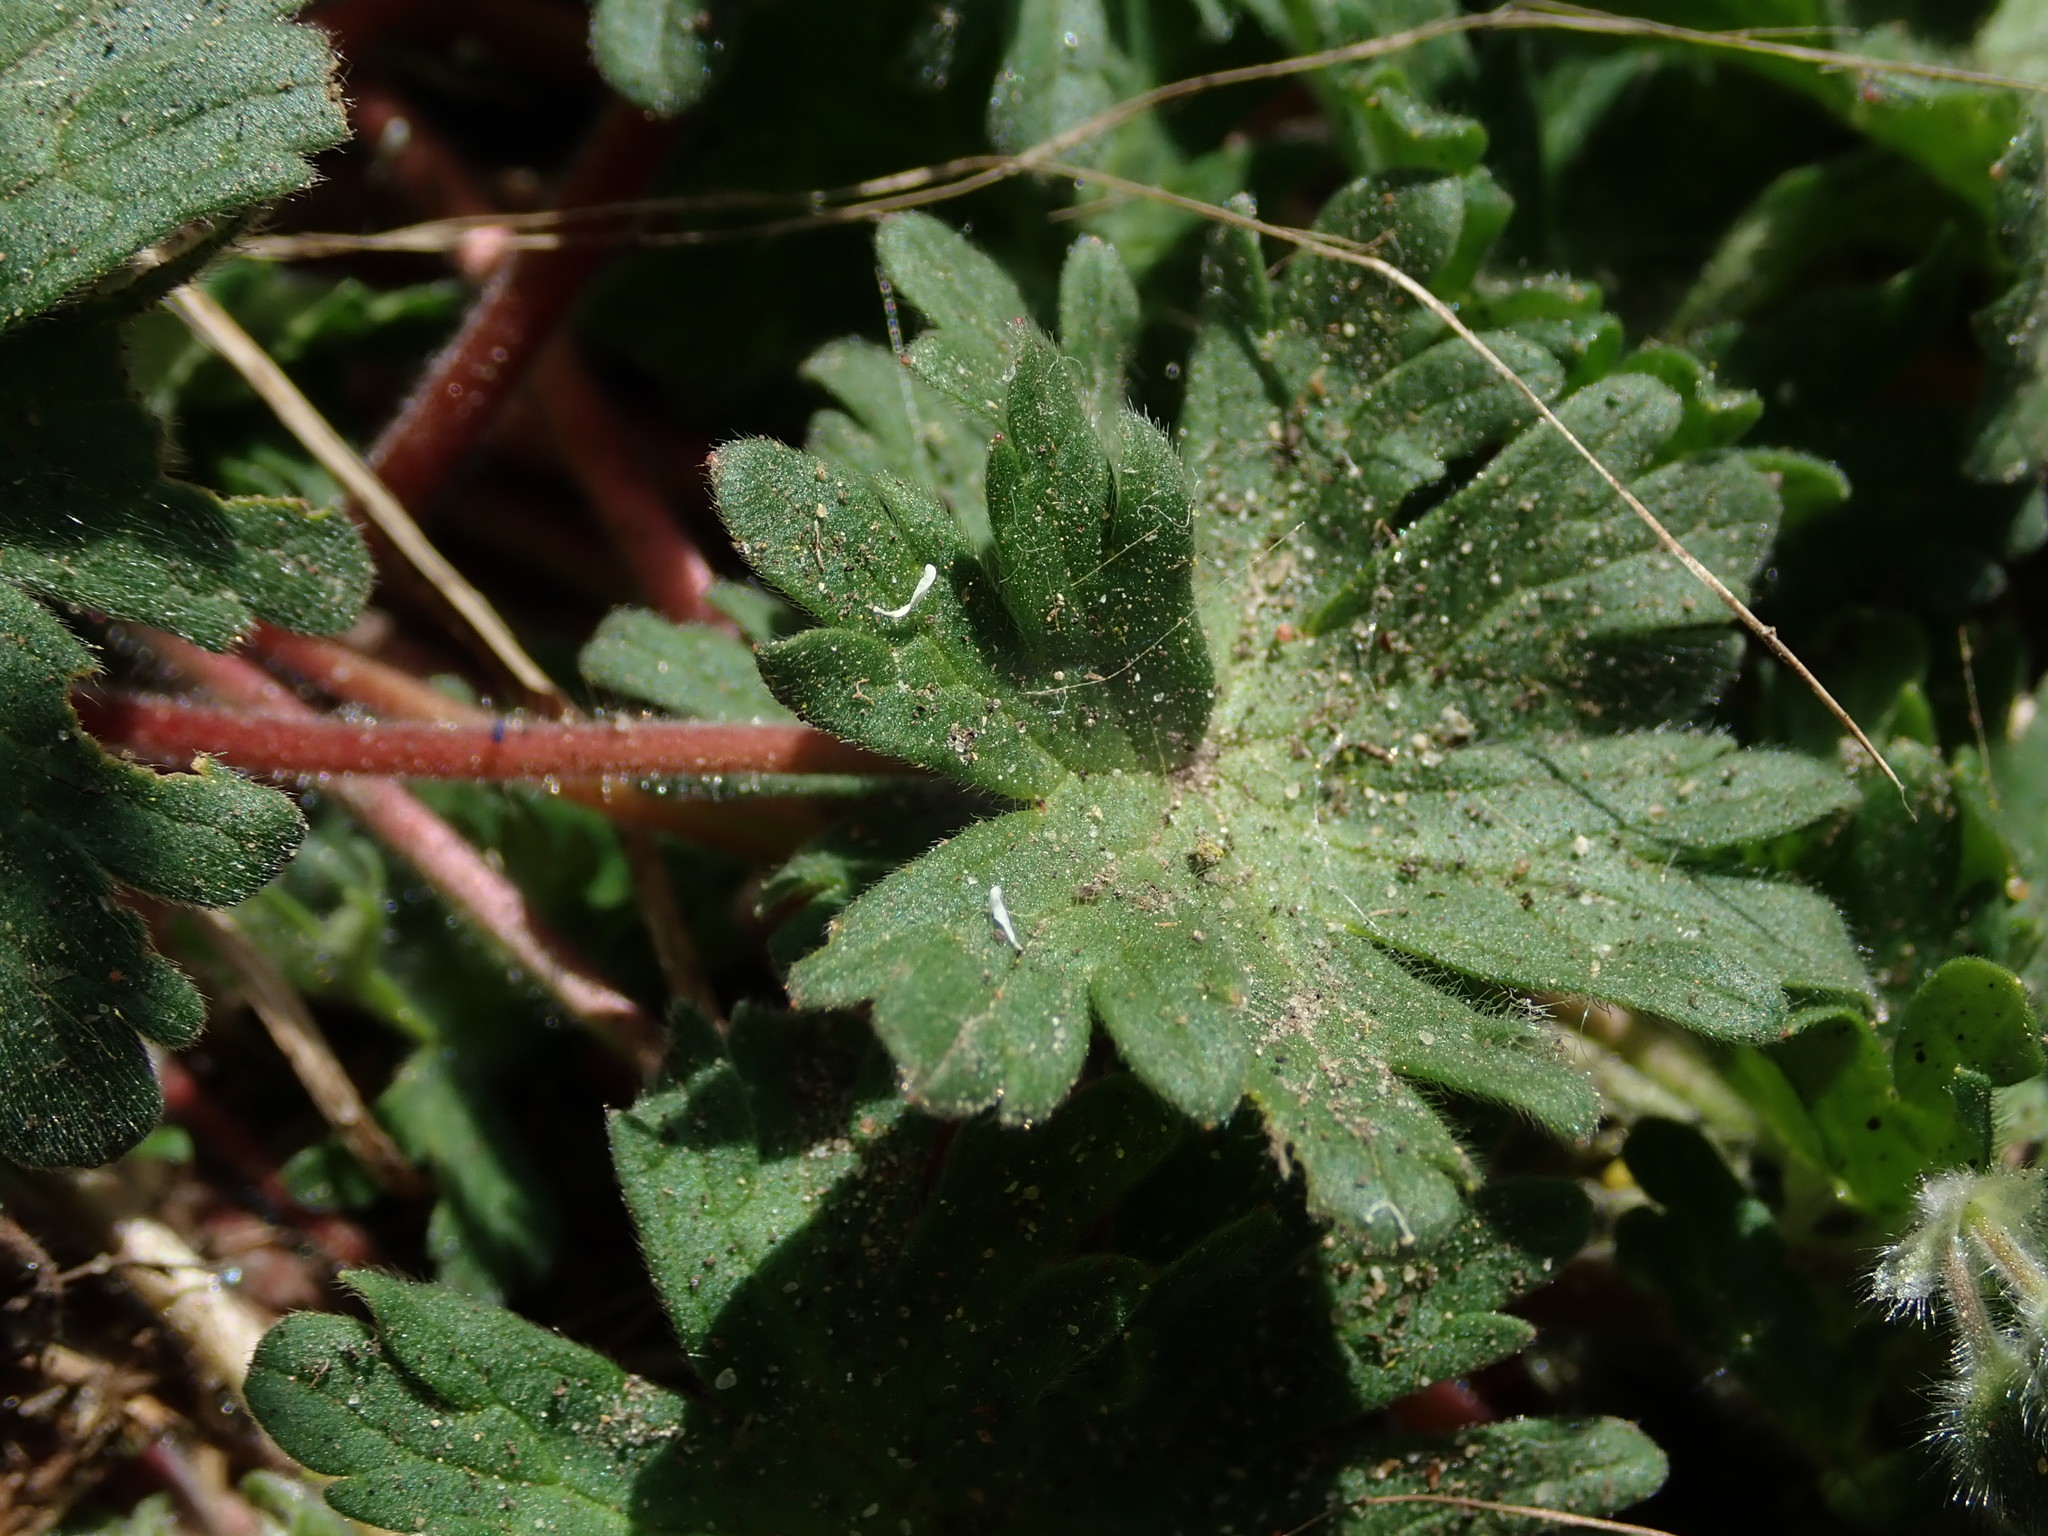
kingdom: Plantae
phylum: Tracheophyta
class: Magnoliopsida
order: Geraniales
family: Geraniaceae
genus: Geranium
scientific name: Geranium molle
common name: Dove's-foot crane's-bill
